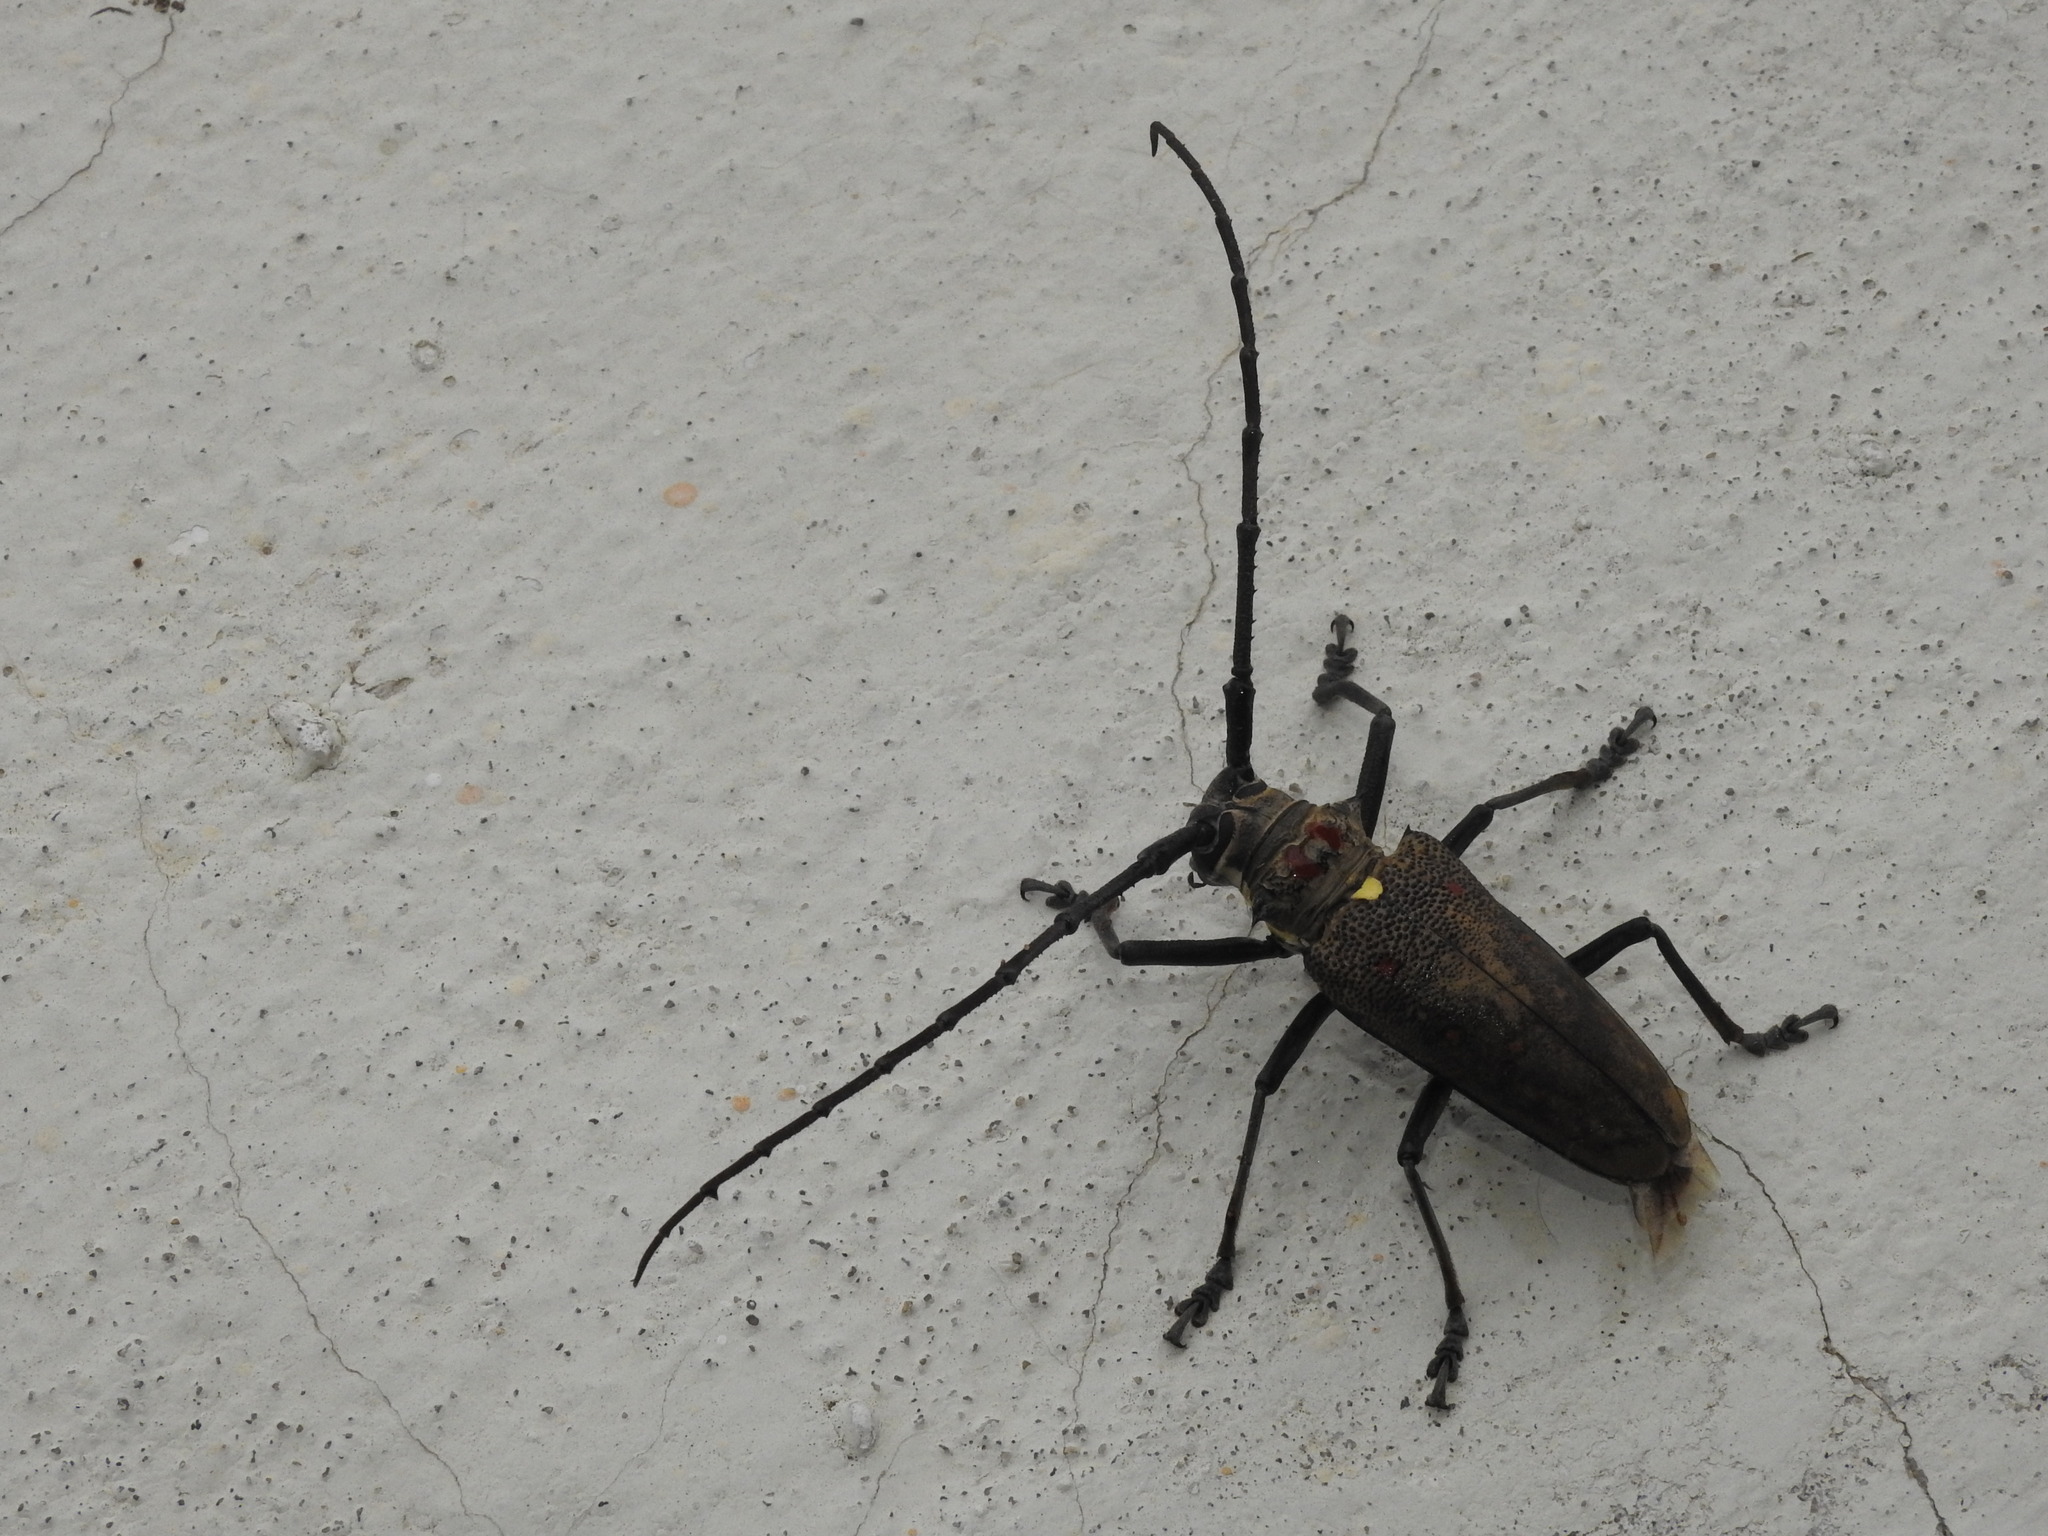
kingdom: Animalia
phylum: Arthropoda
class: Insecta
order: Coleoptera
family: Cerambycidae
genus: Batocera
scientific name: Batocera rufomaculata
